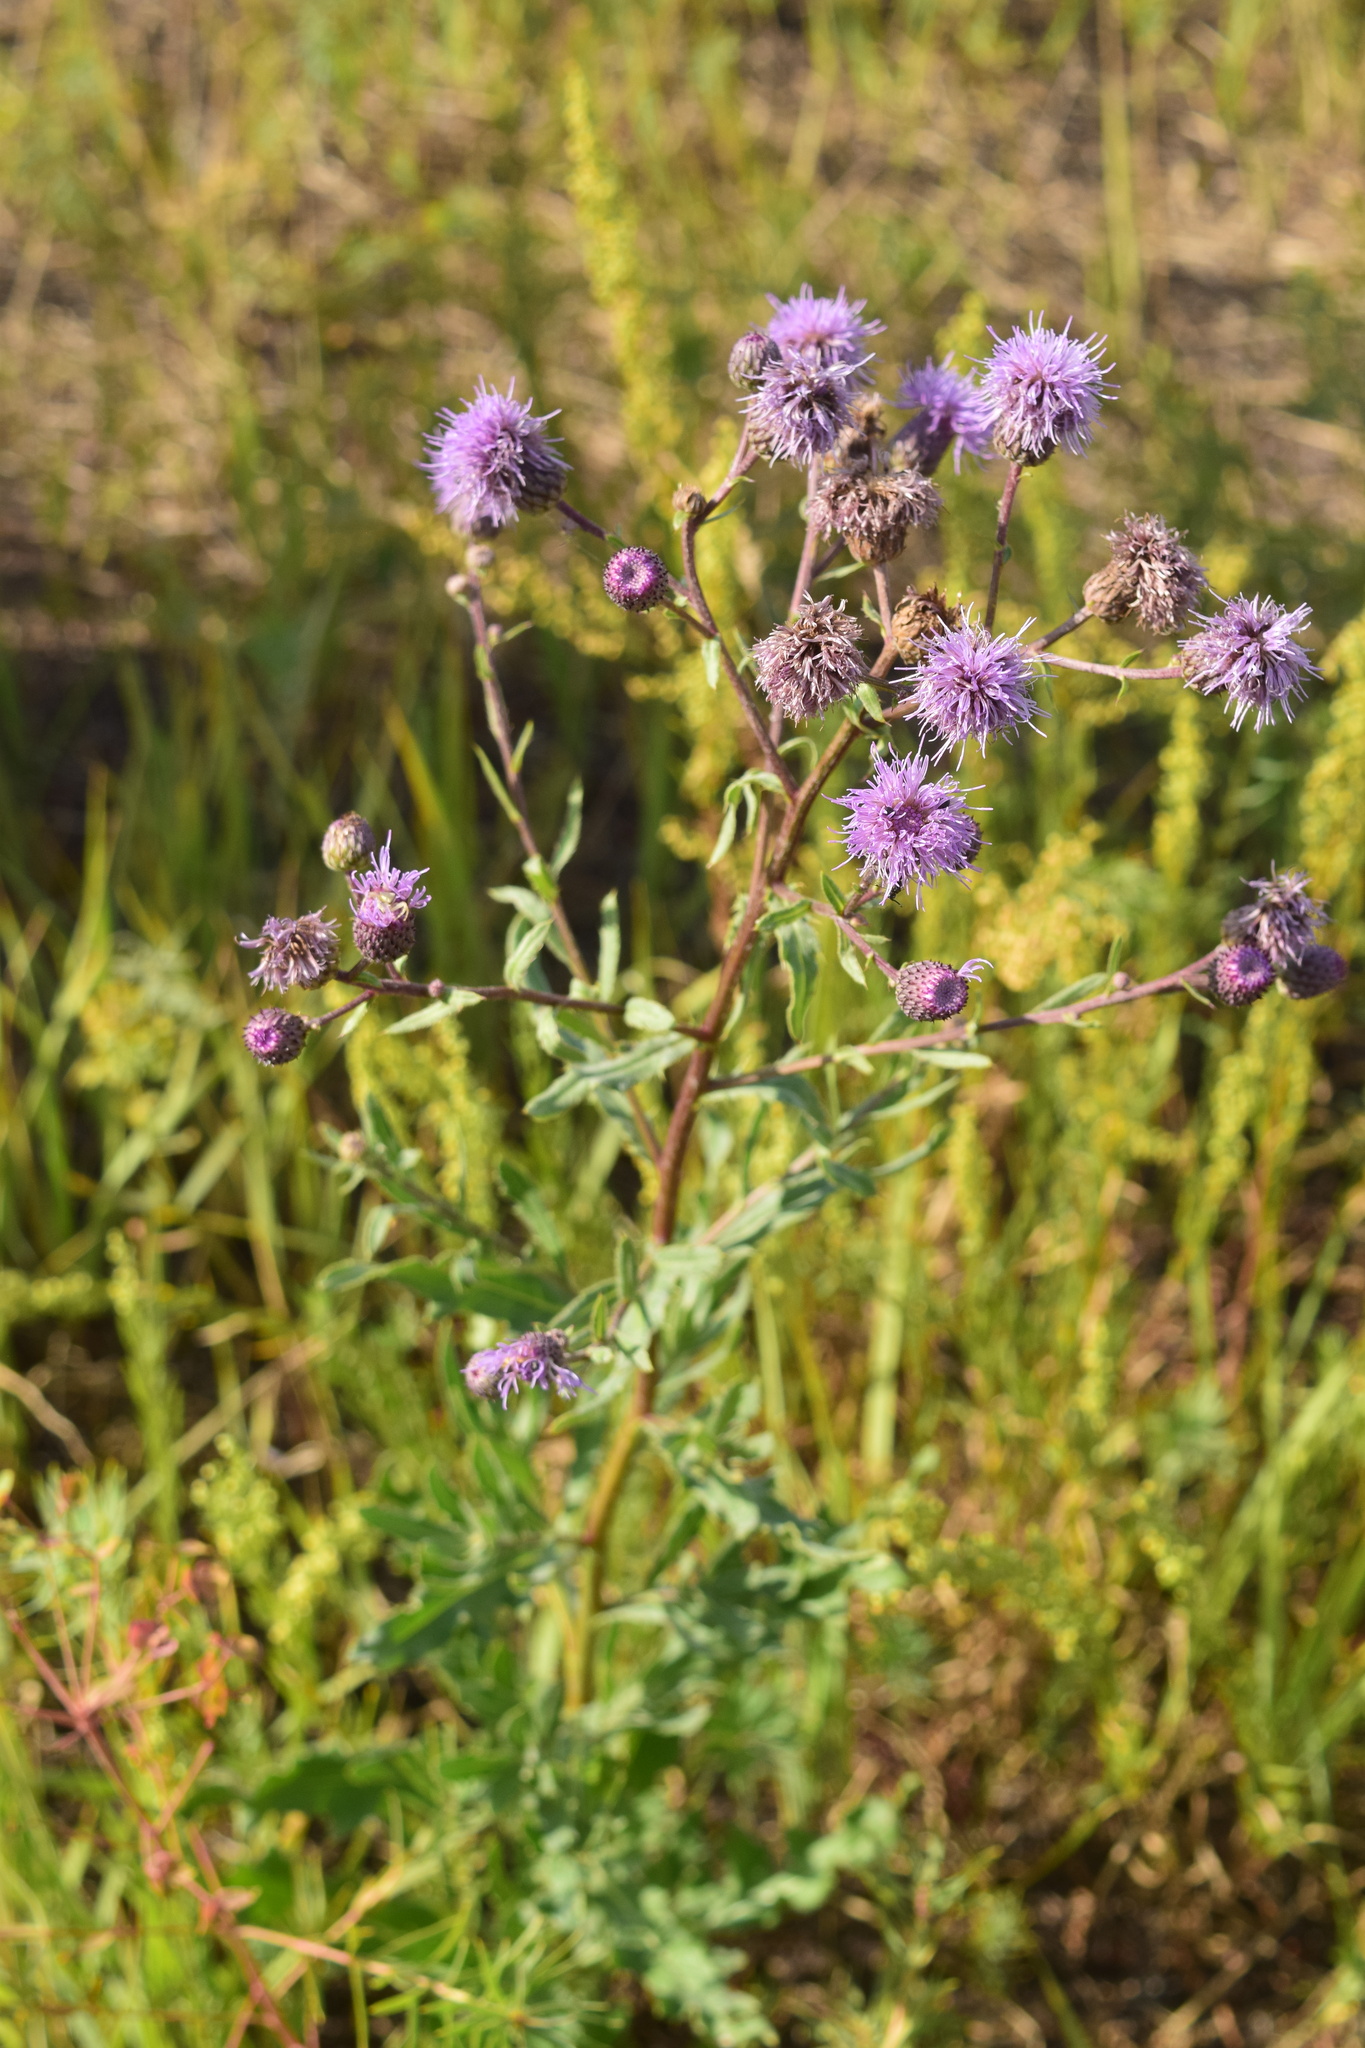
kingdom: Plantae
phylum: Tracheophyta
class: Magnoliopsida
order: Asterales
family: Asteraceae
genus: Cirsium
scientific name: Cirsium arvense
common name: Creeping thistle
